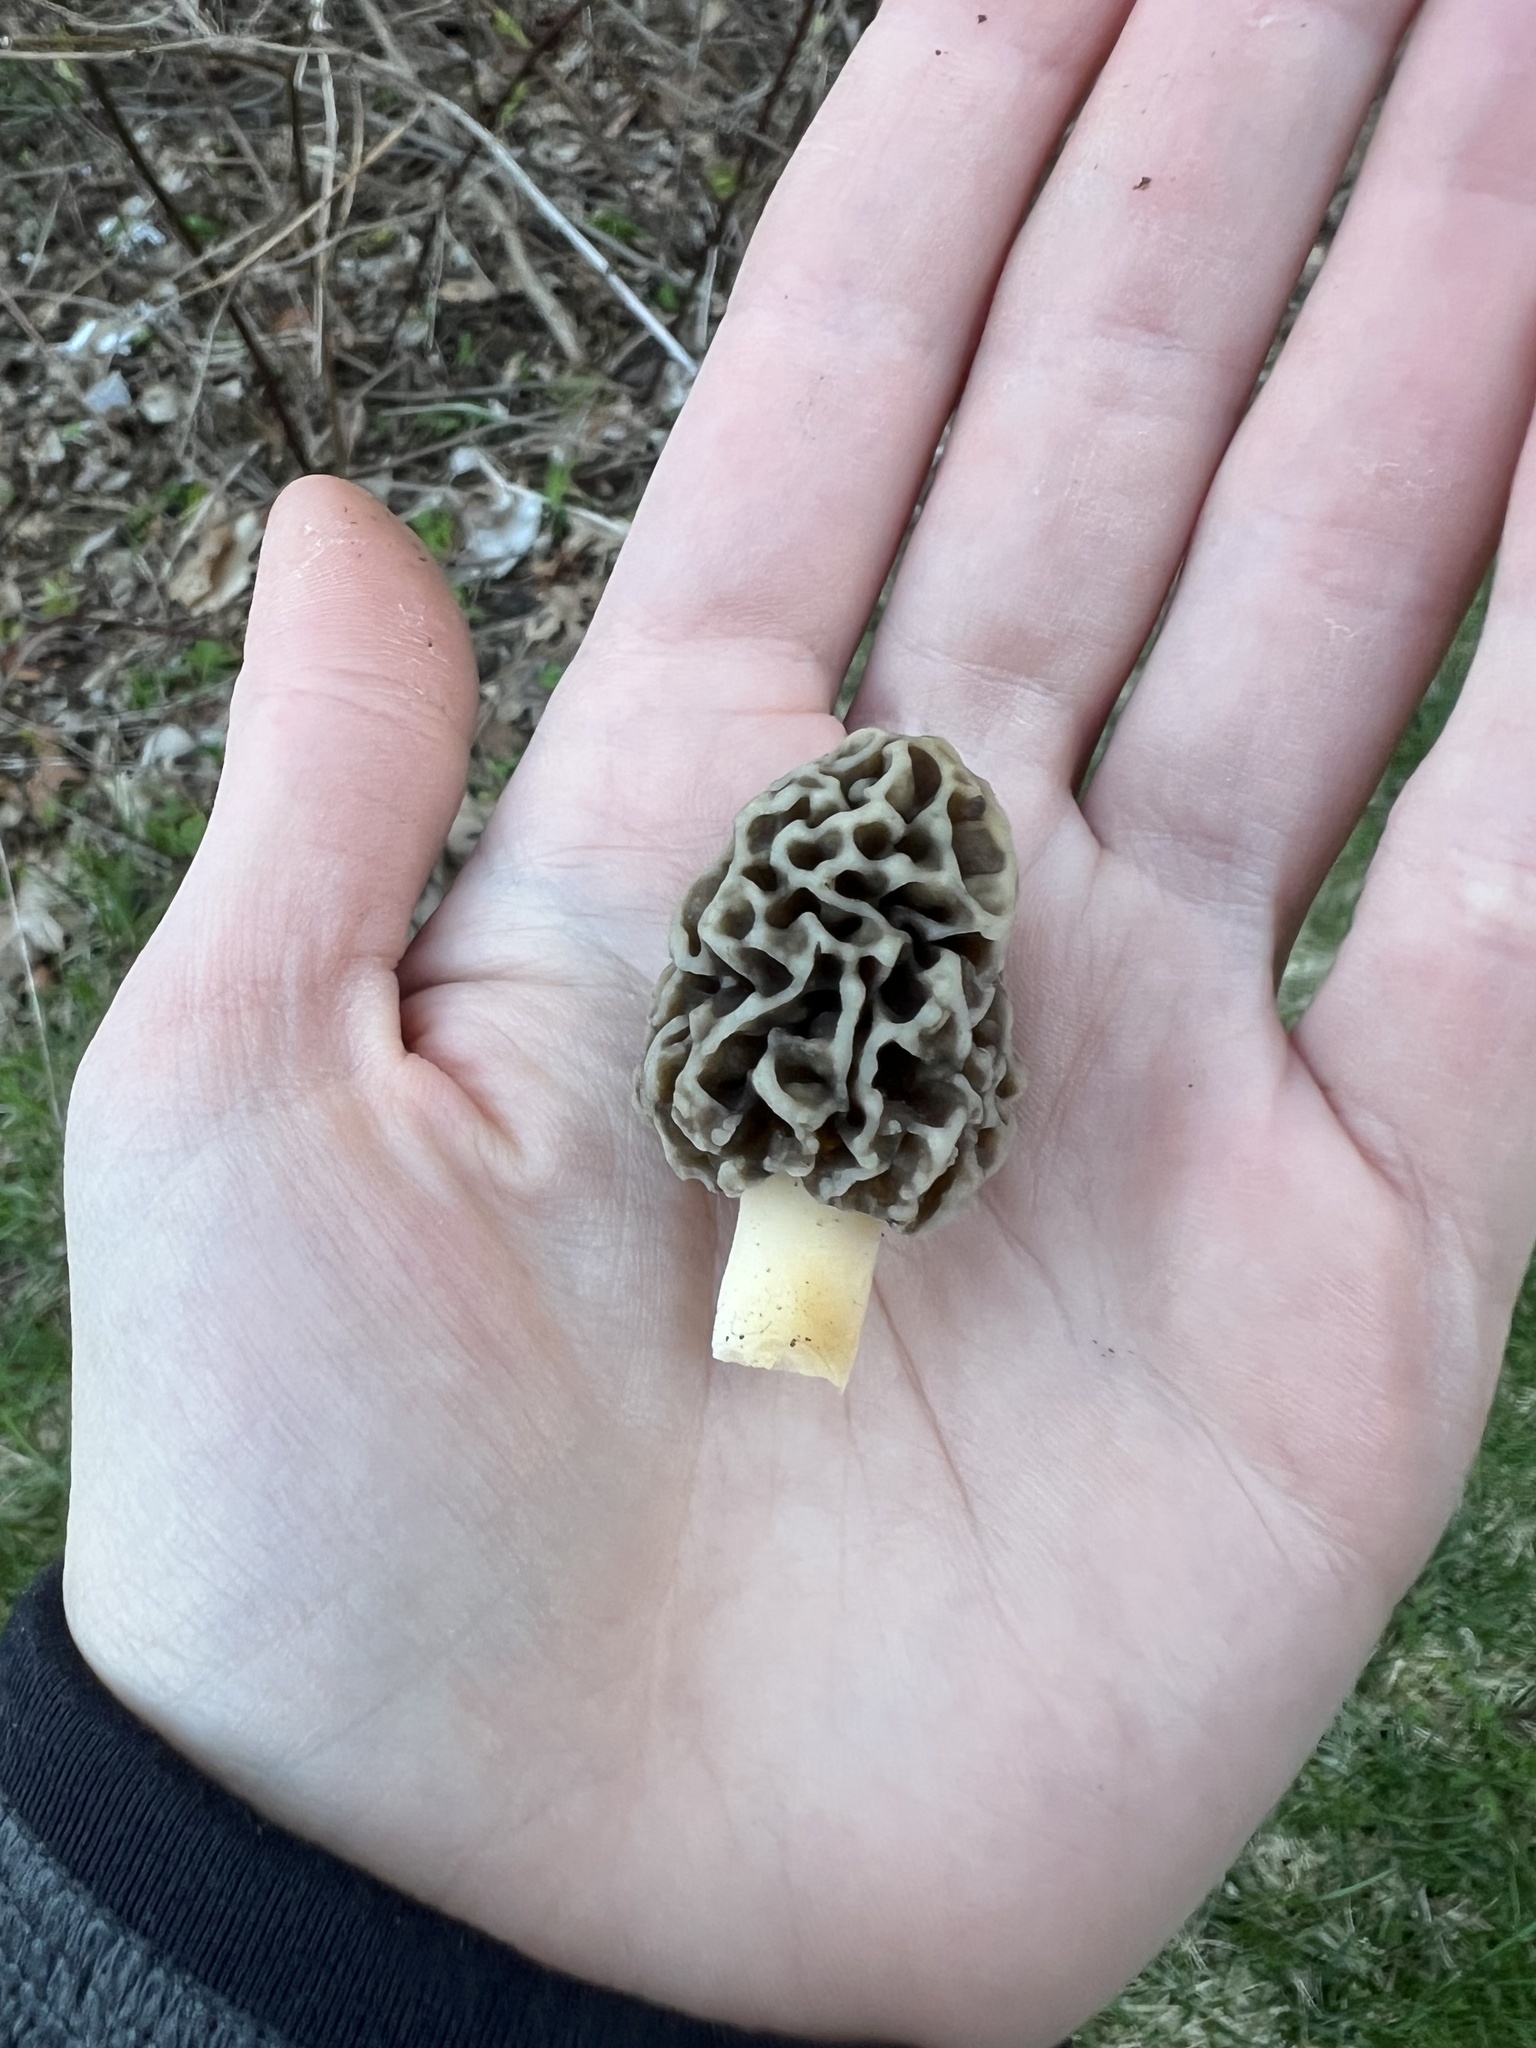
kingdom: Fungi
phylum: Ascomycota
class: Pezizomycetes
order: Pezizales
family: Morchellaceae
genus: Morchella
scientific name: Morchella americana
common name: White morel
